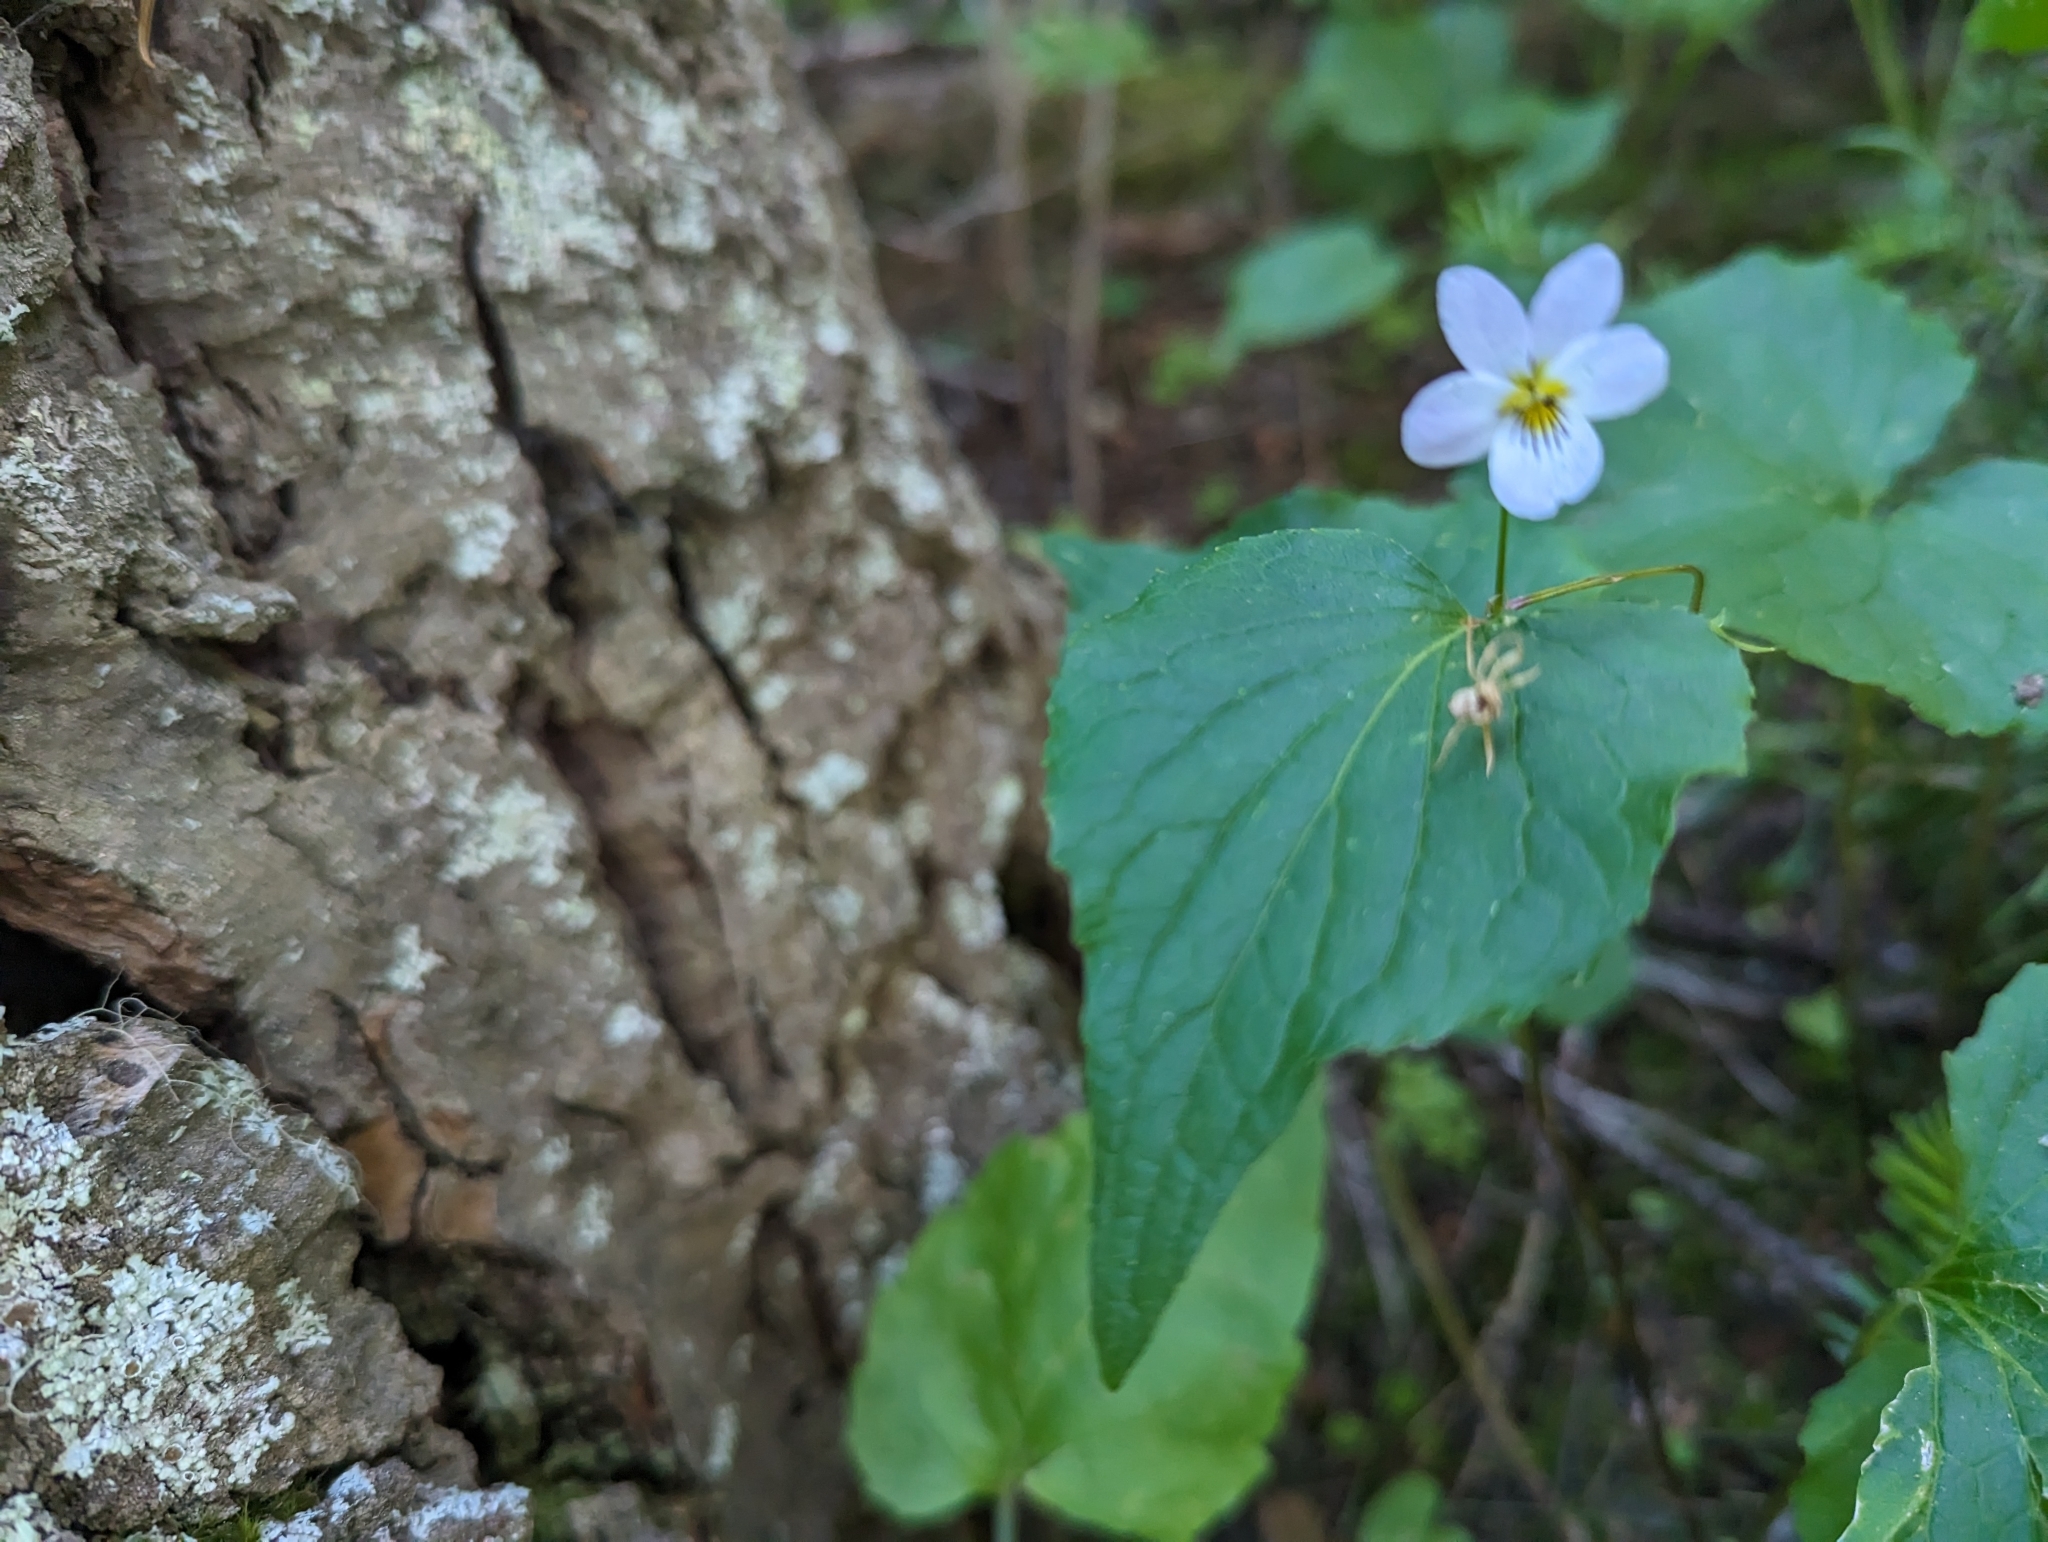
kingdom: Plantae
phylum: Tracheophyta
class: Magnoliopsida
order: Malpighiales
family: Violaceae
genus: Viola
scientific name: Viola canadensis
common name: Canada violet
